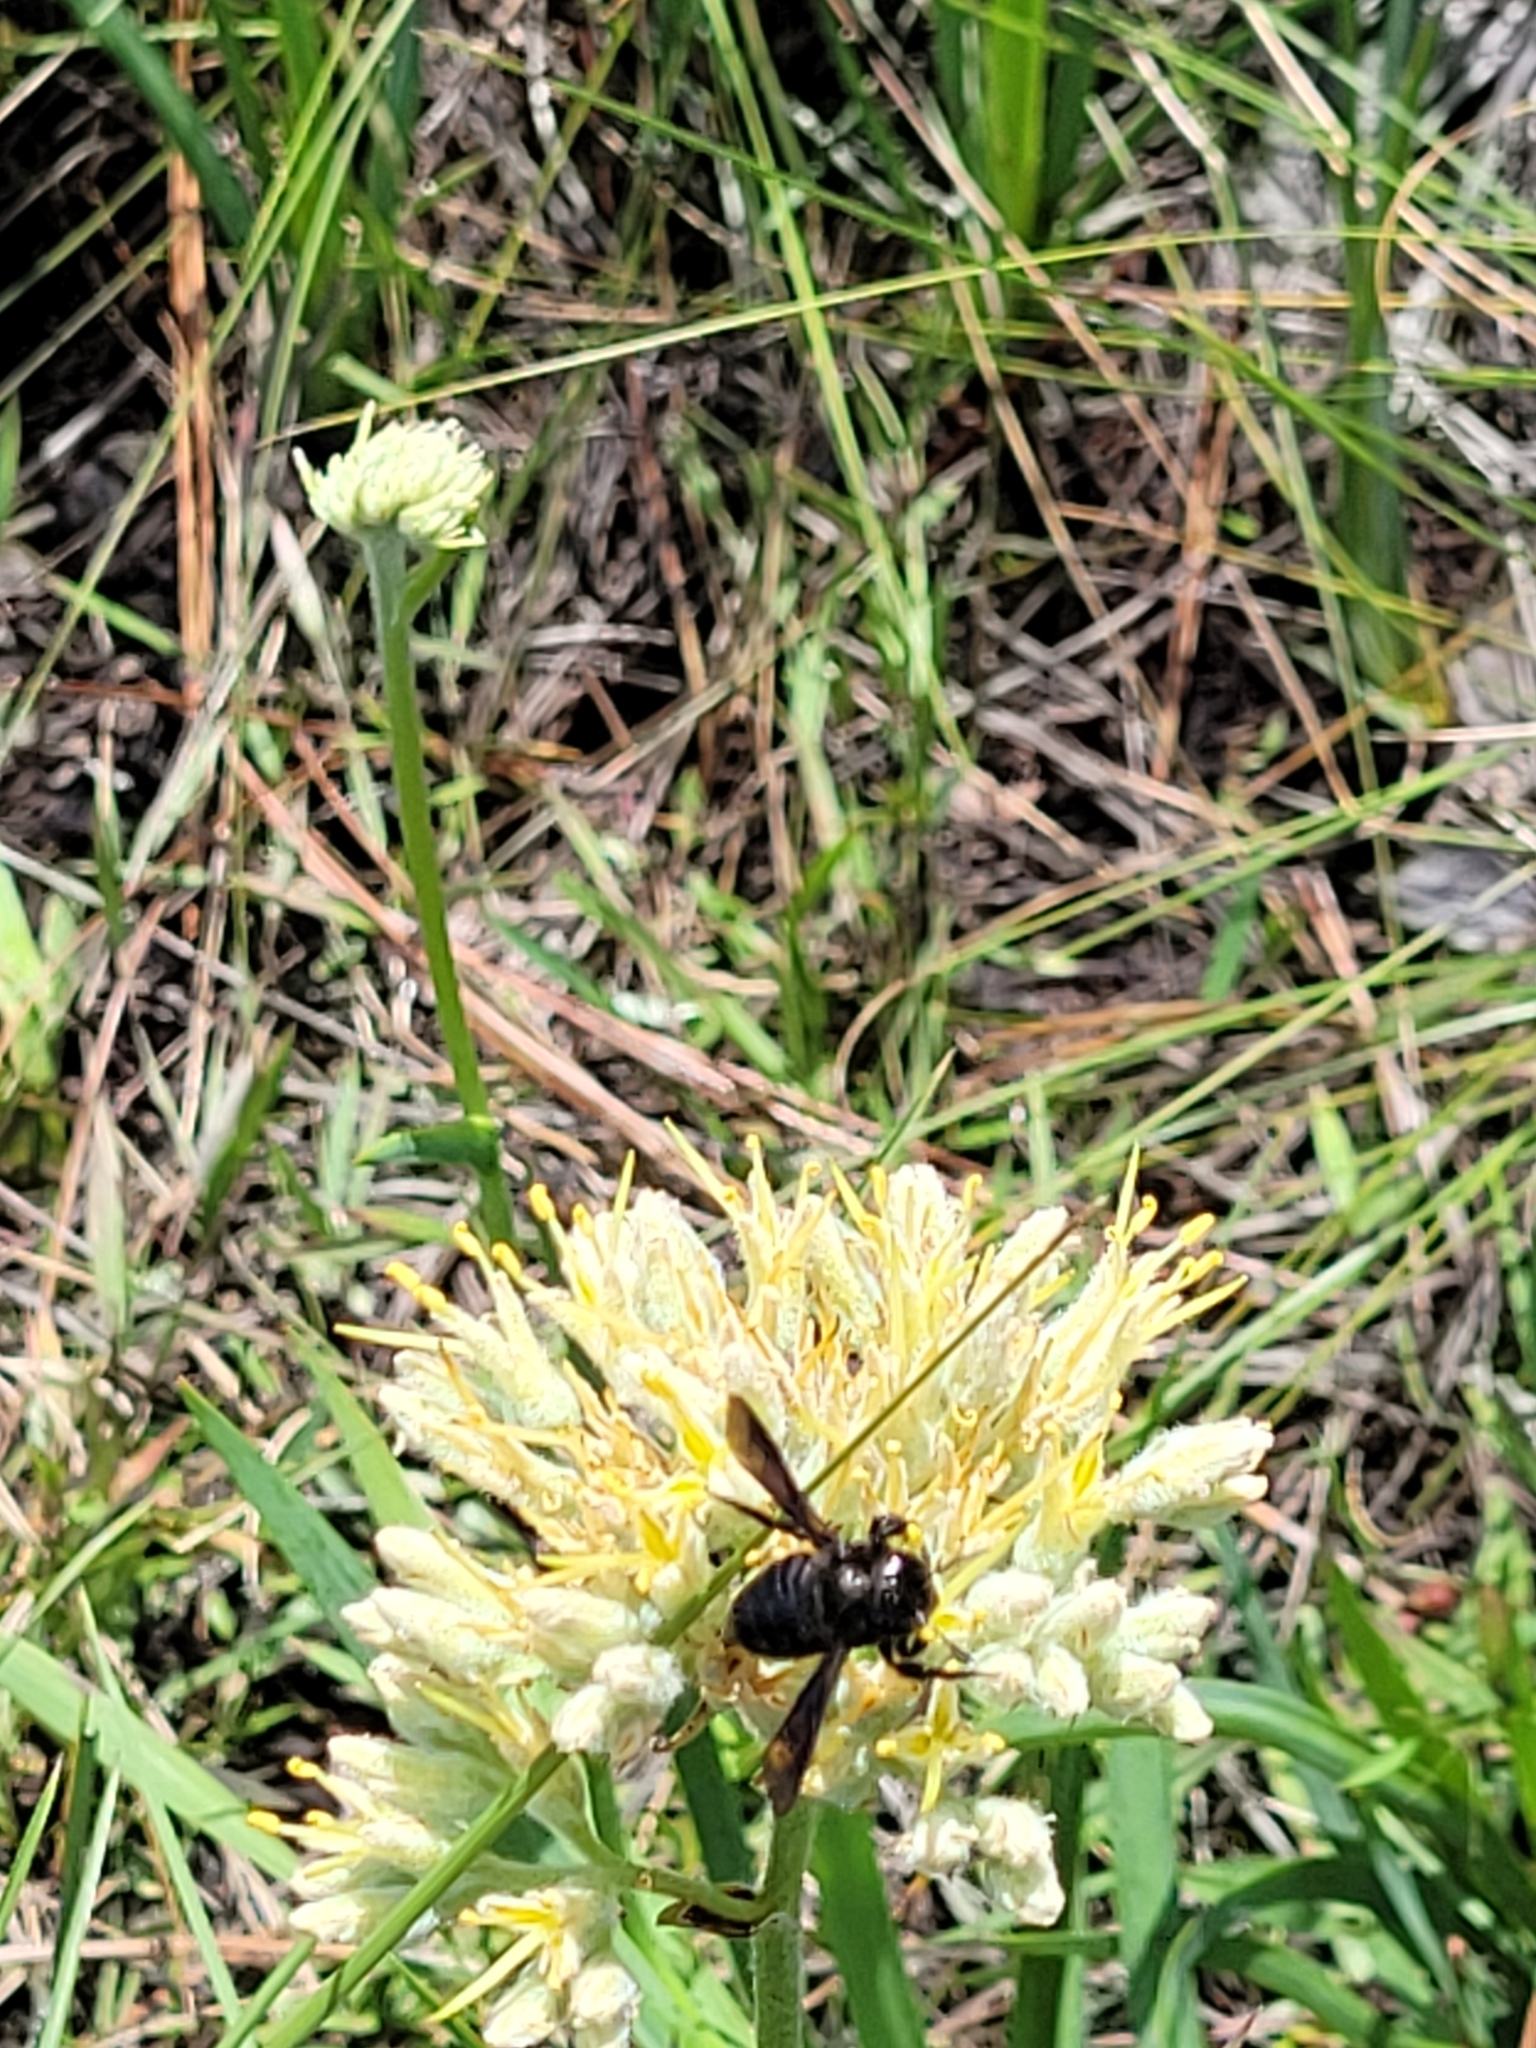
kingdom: Animalia
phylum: Arthropoda
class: Insecta
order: Hymenoptera
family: Megachilidae
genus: Megachile
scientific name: Megachile xylocopoides
